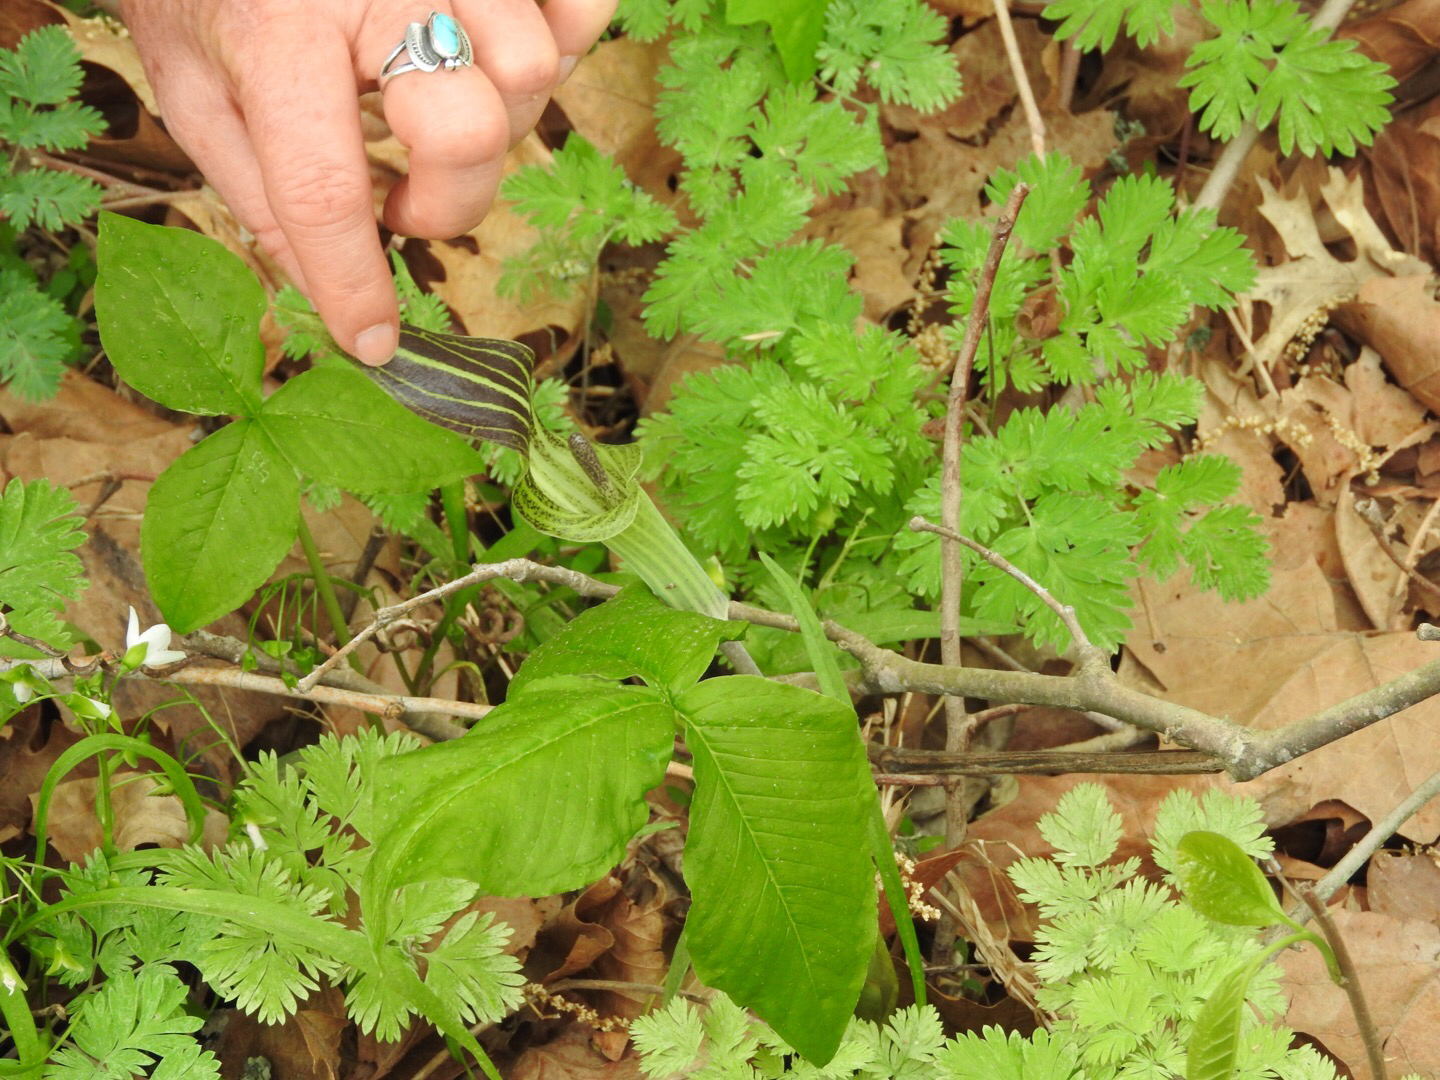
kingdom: Plantae
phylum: Tracheophyta
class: Liliopsida
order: Alismatales
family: Araceae
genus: Arisaema
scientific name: Arisaema triphyllum
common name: Jack-in-the-pulpit
